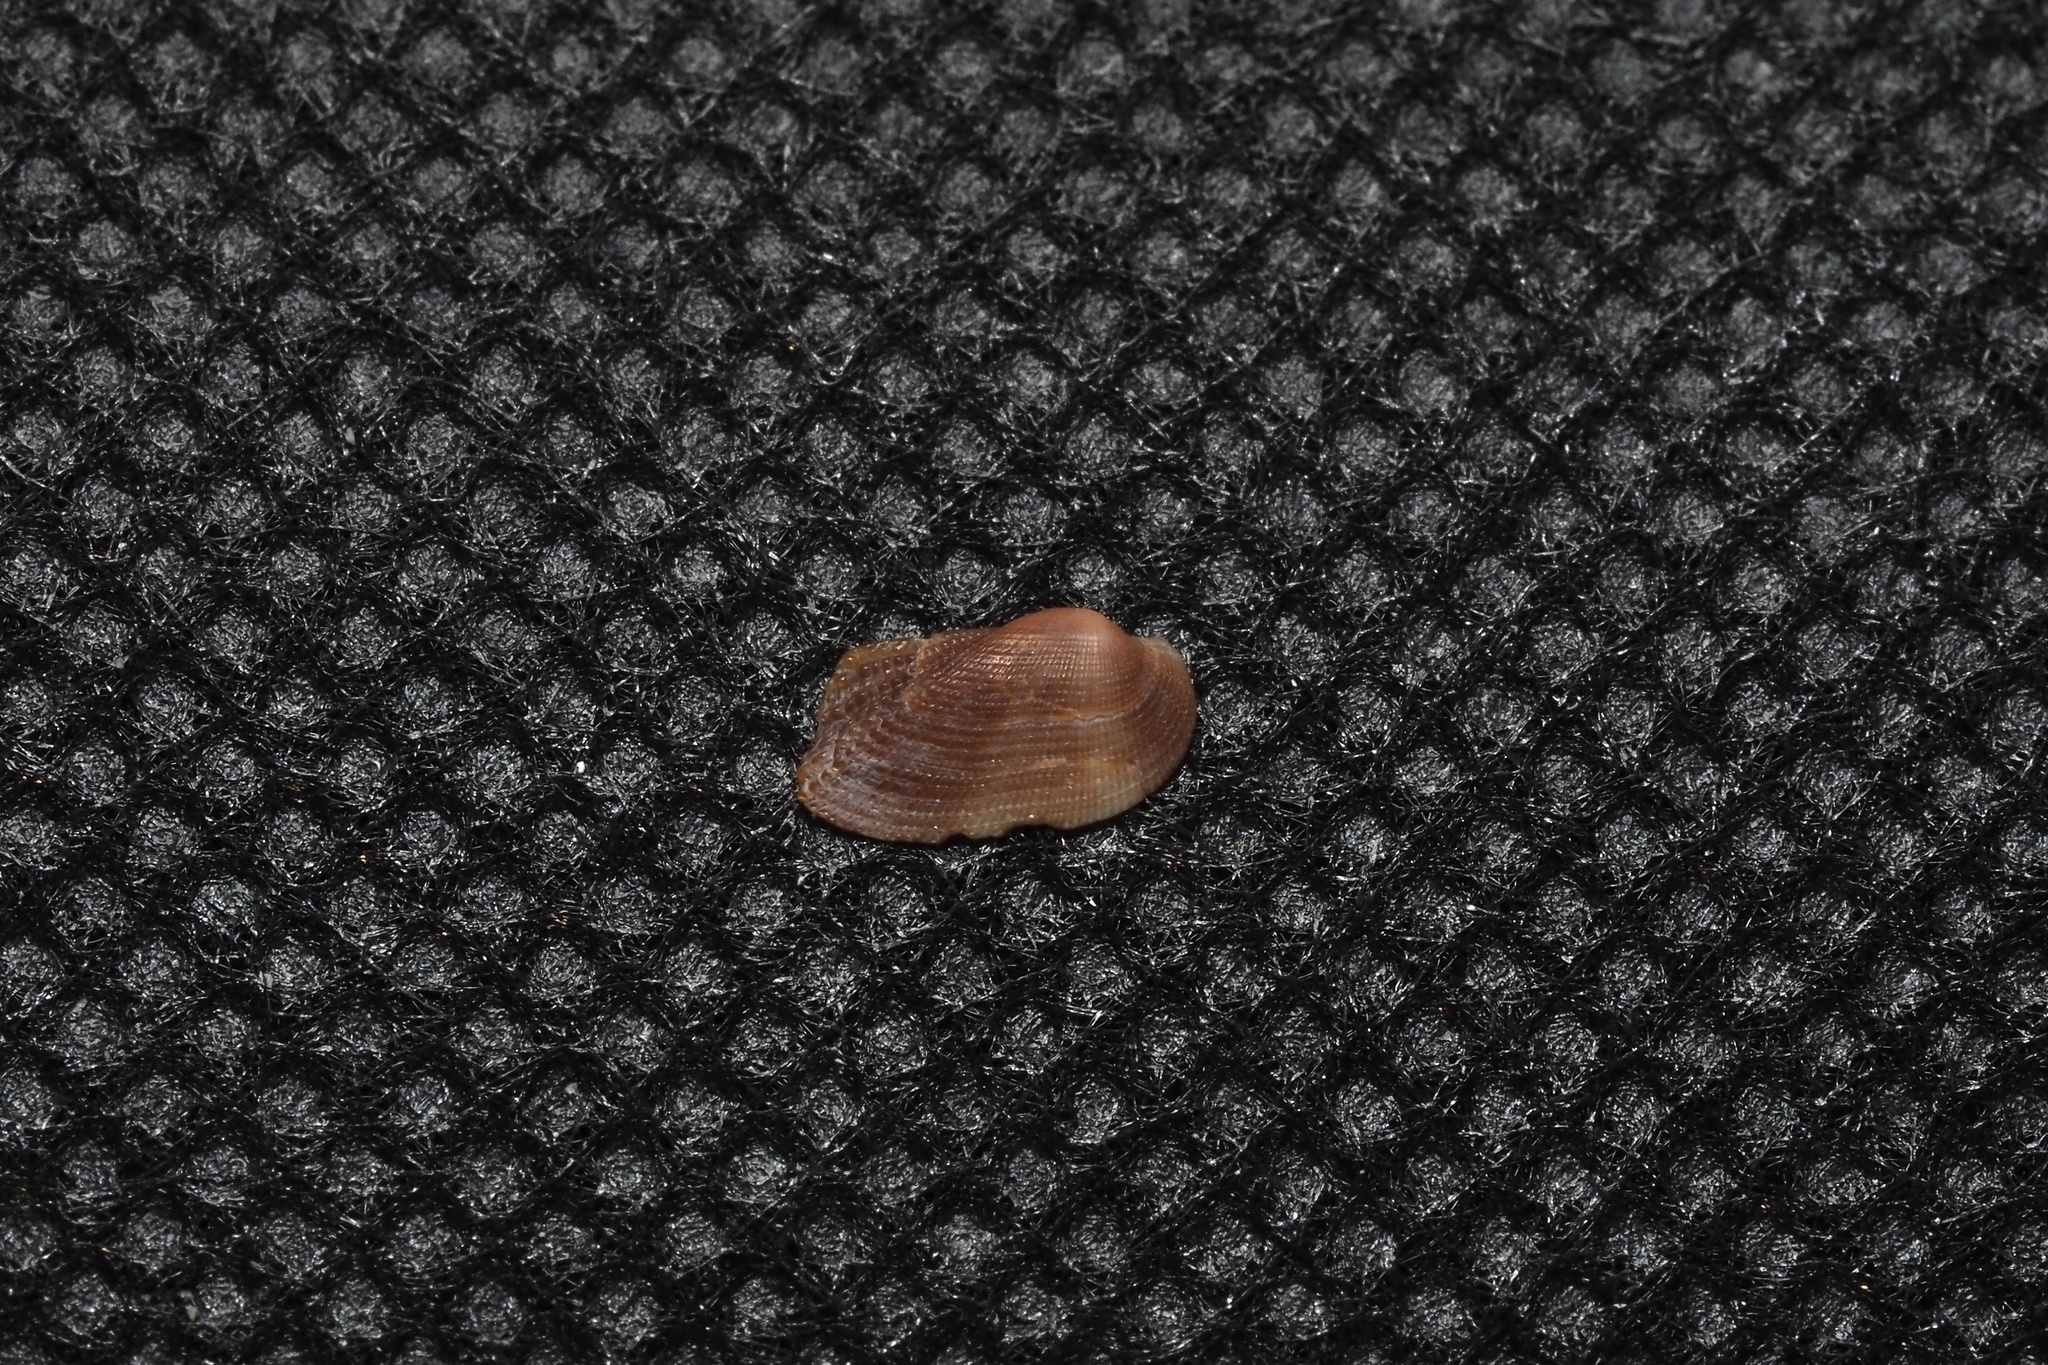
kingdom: Animalia
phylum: Mollusca
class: Bivalvia
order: Arcida
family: Arcidae
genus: Barbatia
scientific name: Barbatia stearnsii
